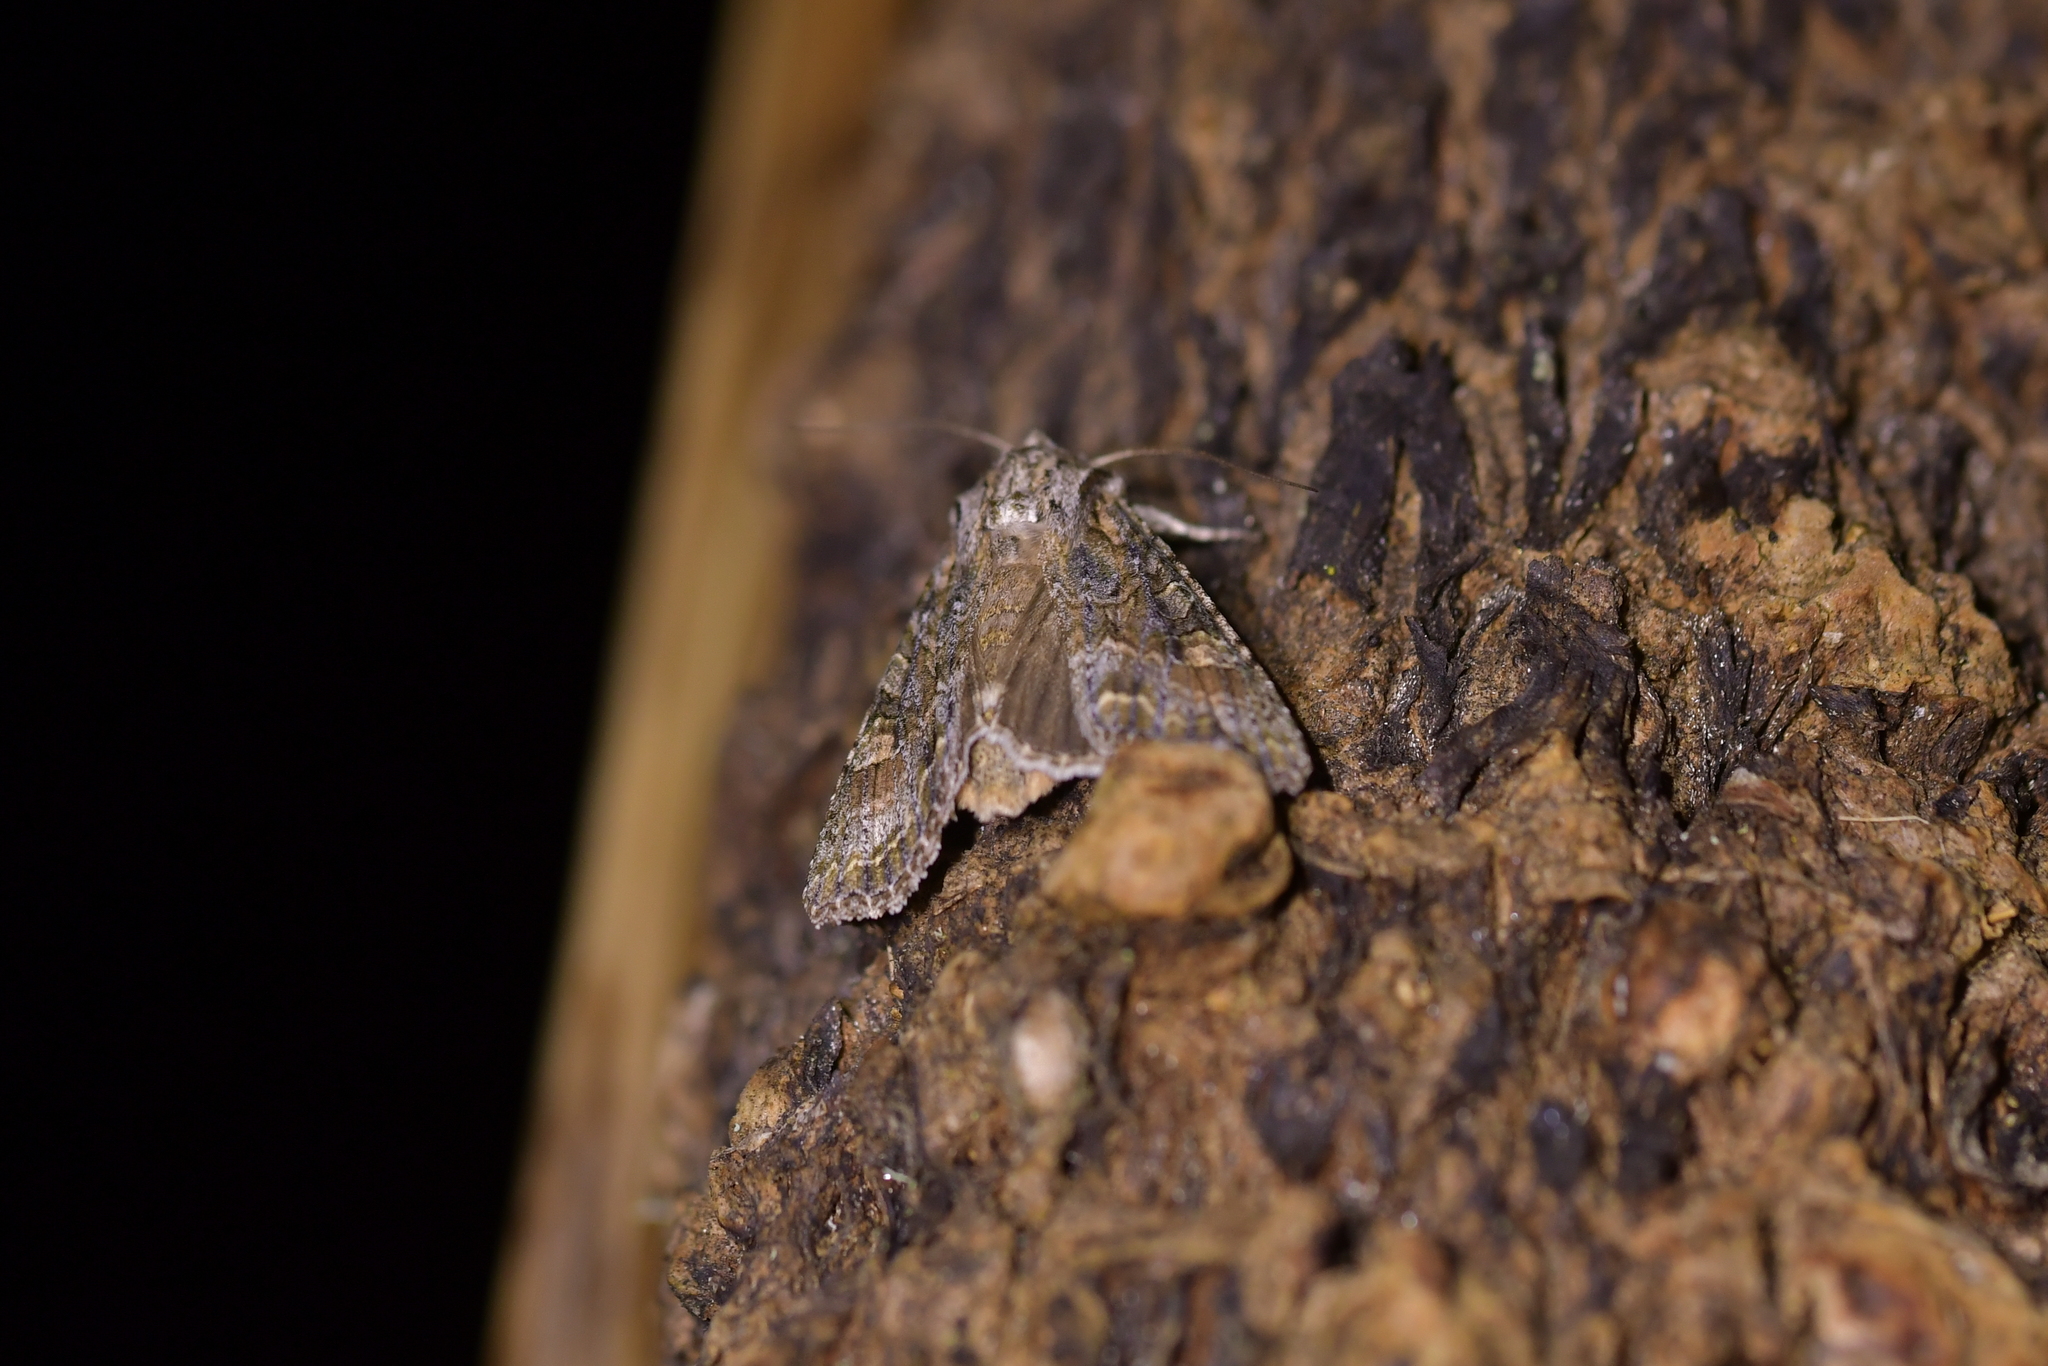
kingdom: Animalia
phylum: Arthropoda
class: Insecta
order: Lepidoptera
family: Noctuidae
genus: Ichneutica
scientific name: Ichneutica mutans
